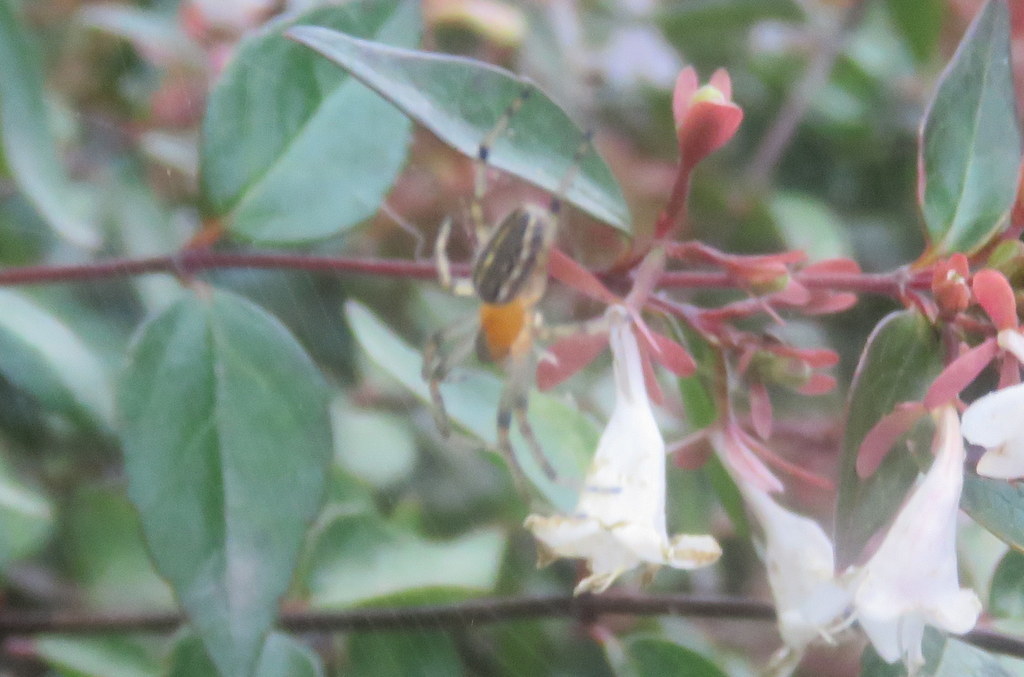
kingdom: Animalia
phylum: Arthropoda
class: Arachnida
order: Araneae
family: Araneidae
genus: Alpaida
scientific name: Alpaida veniliae
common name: Orb weavers
